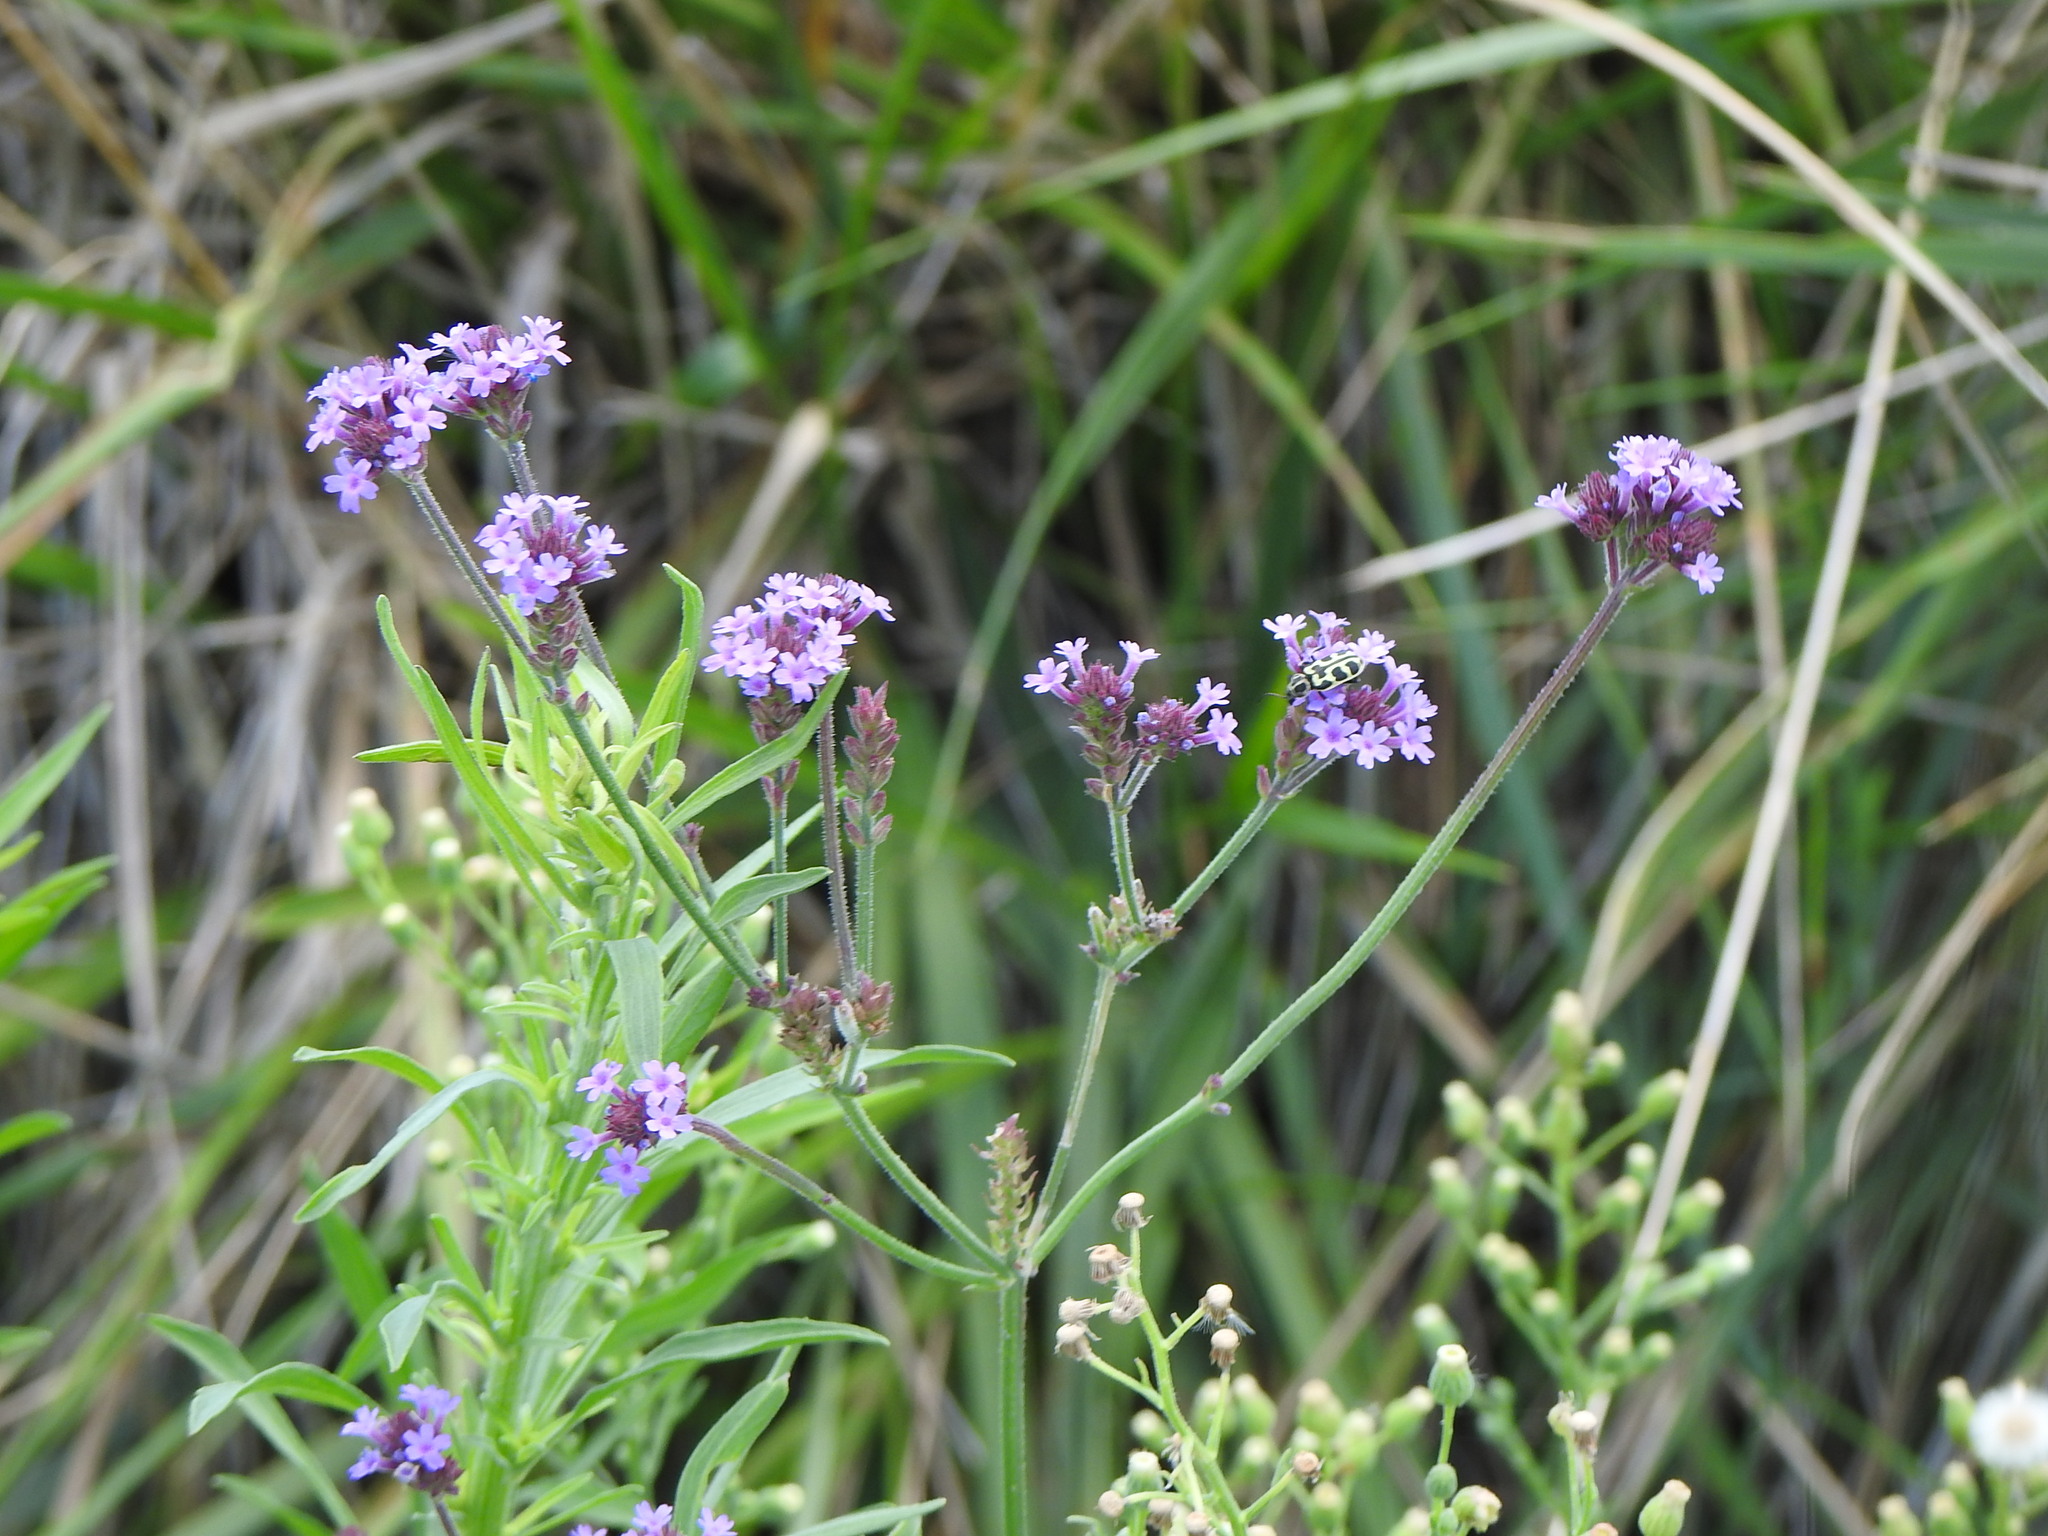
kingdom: Plantae
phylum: Tracheophyta
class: Magnoliopsida
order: Lamiales
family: Verbenaceae
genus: Verbena
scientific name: Verbena bonariensis
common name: Purpletop vervain
